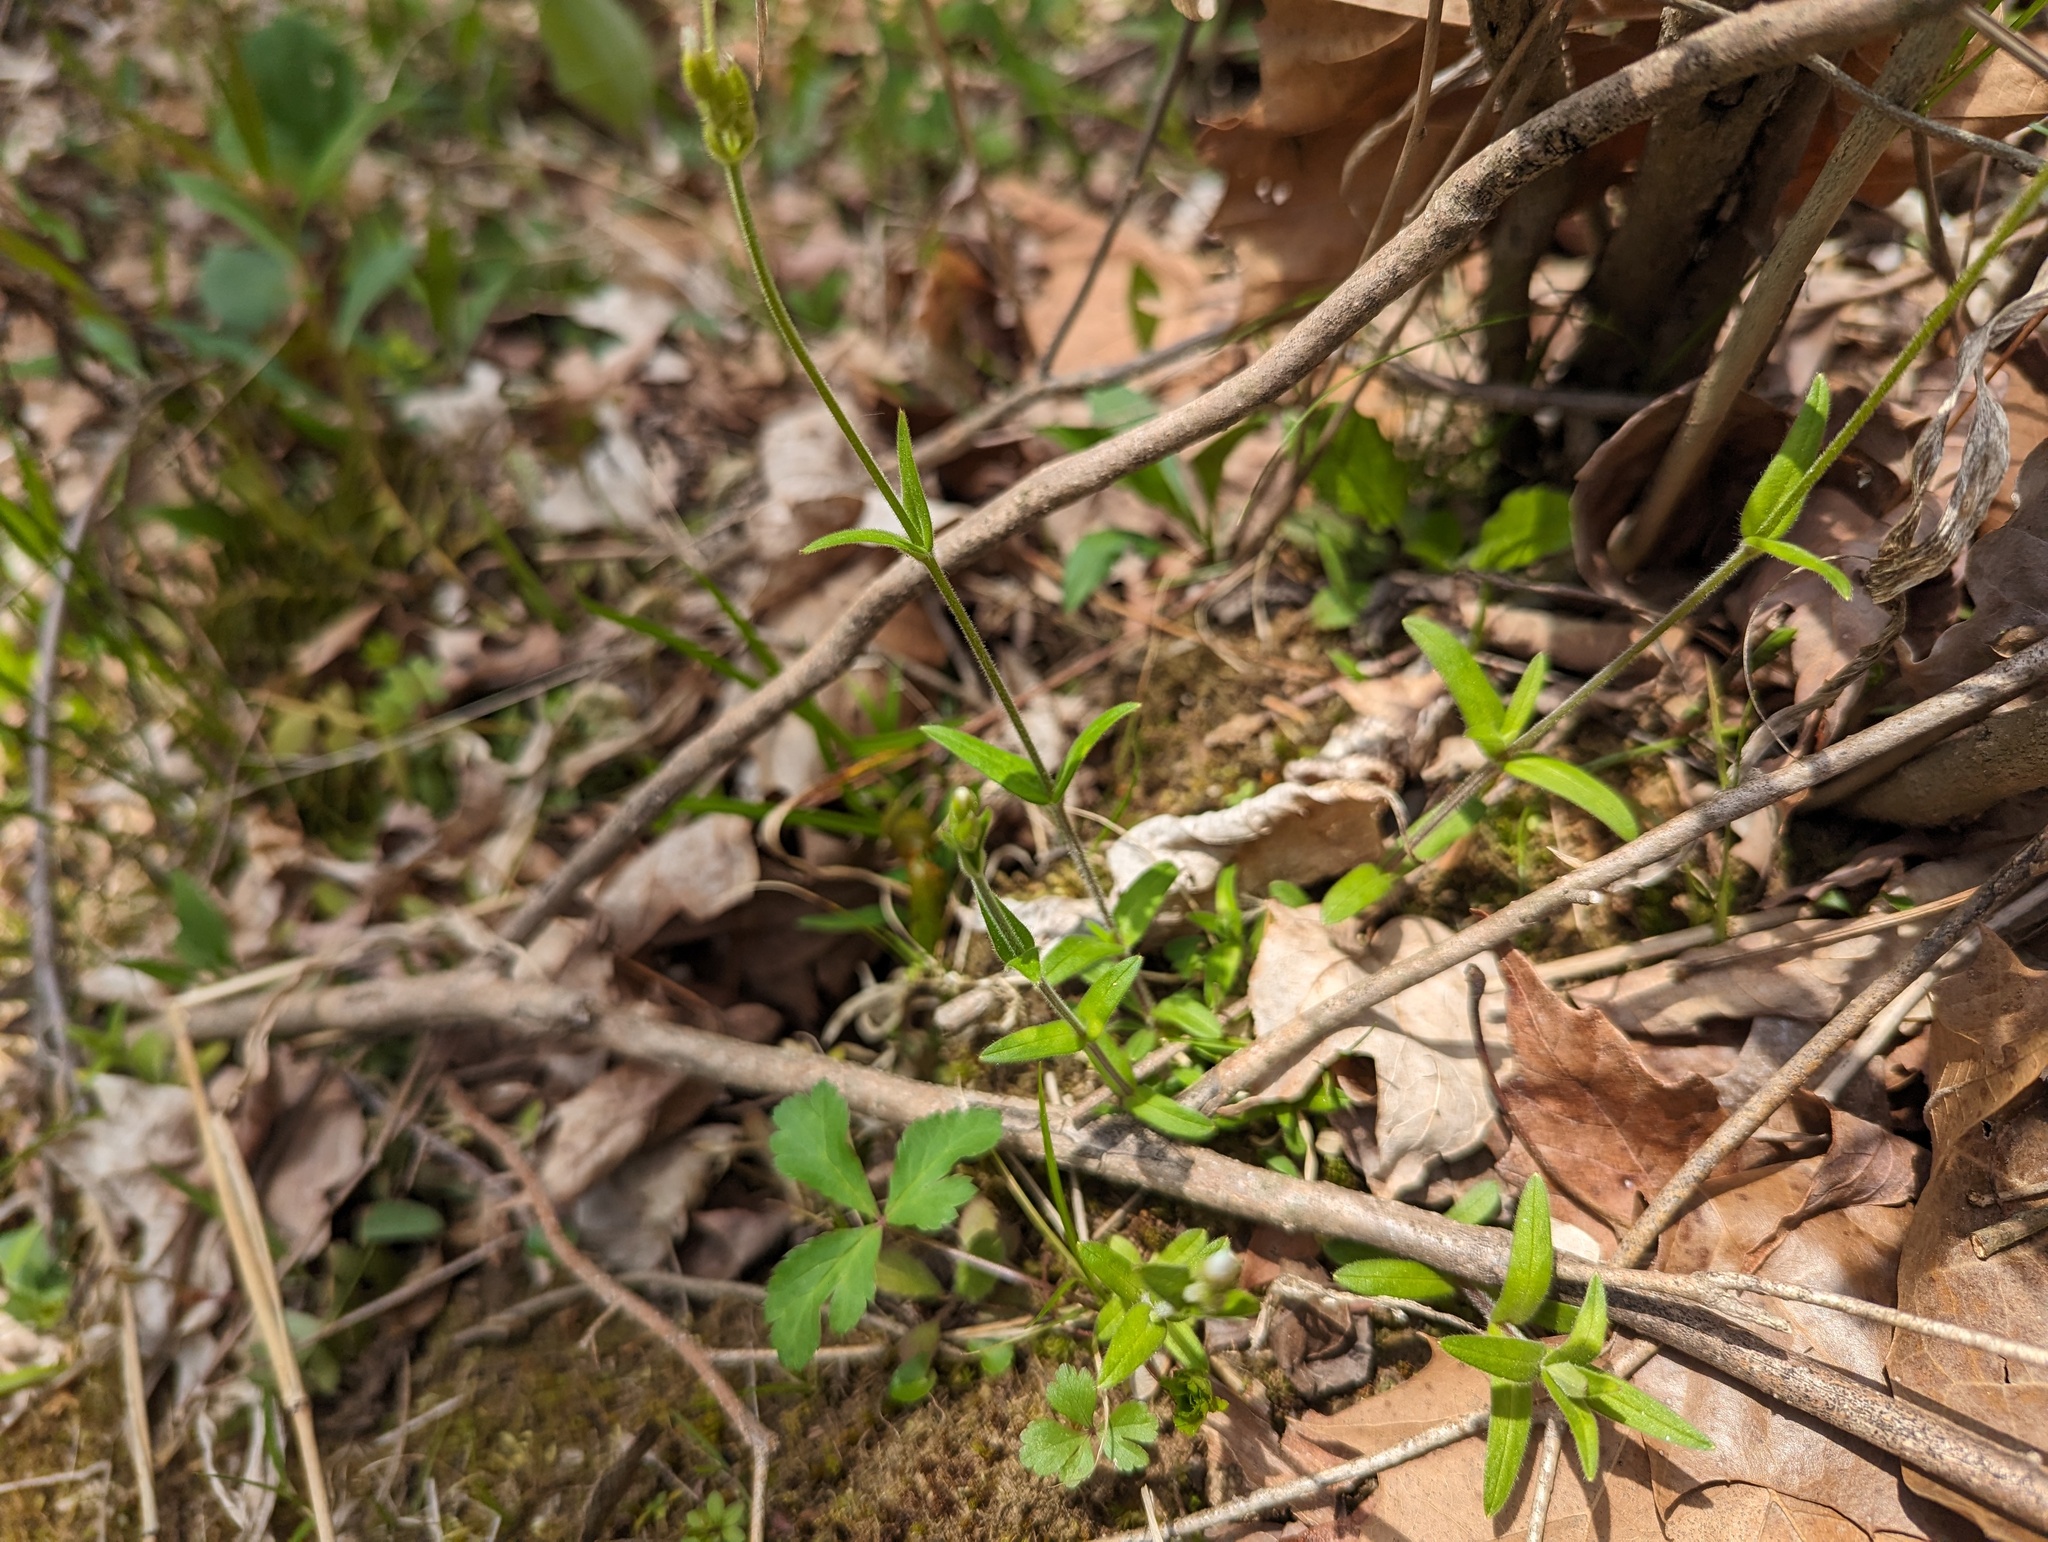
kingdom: Plantae
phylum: Tracheophyta
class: Magnoliopsida
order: Caryophyllales
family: Caryophyllaceae
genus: Cerastium
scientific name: Cerastium velutinum
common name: Barren chickweed
